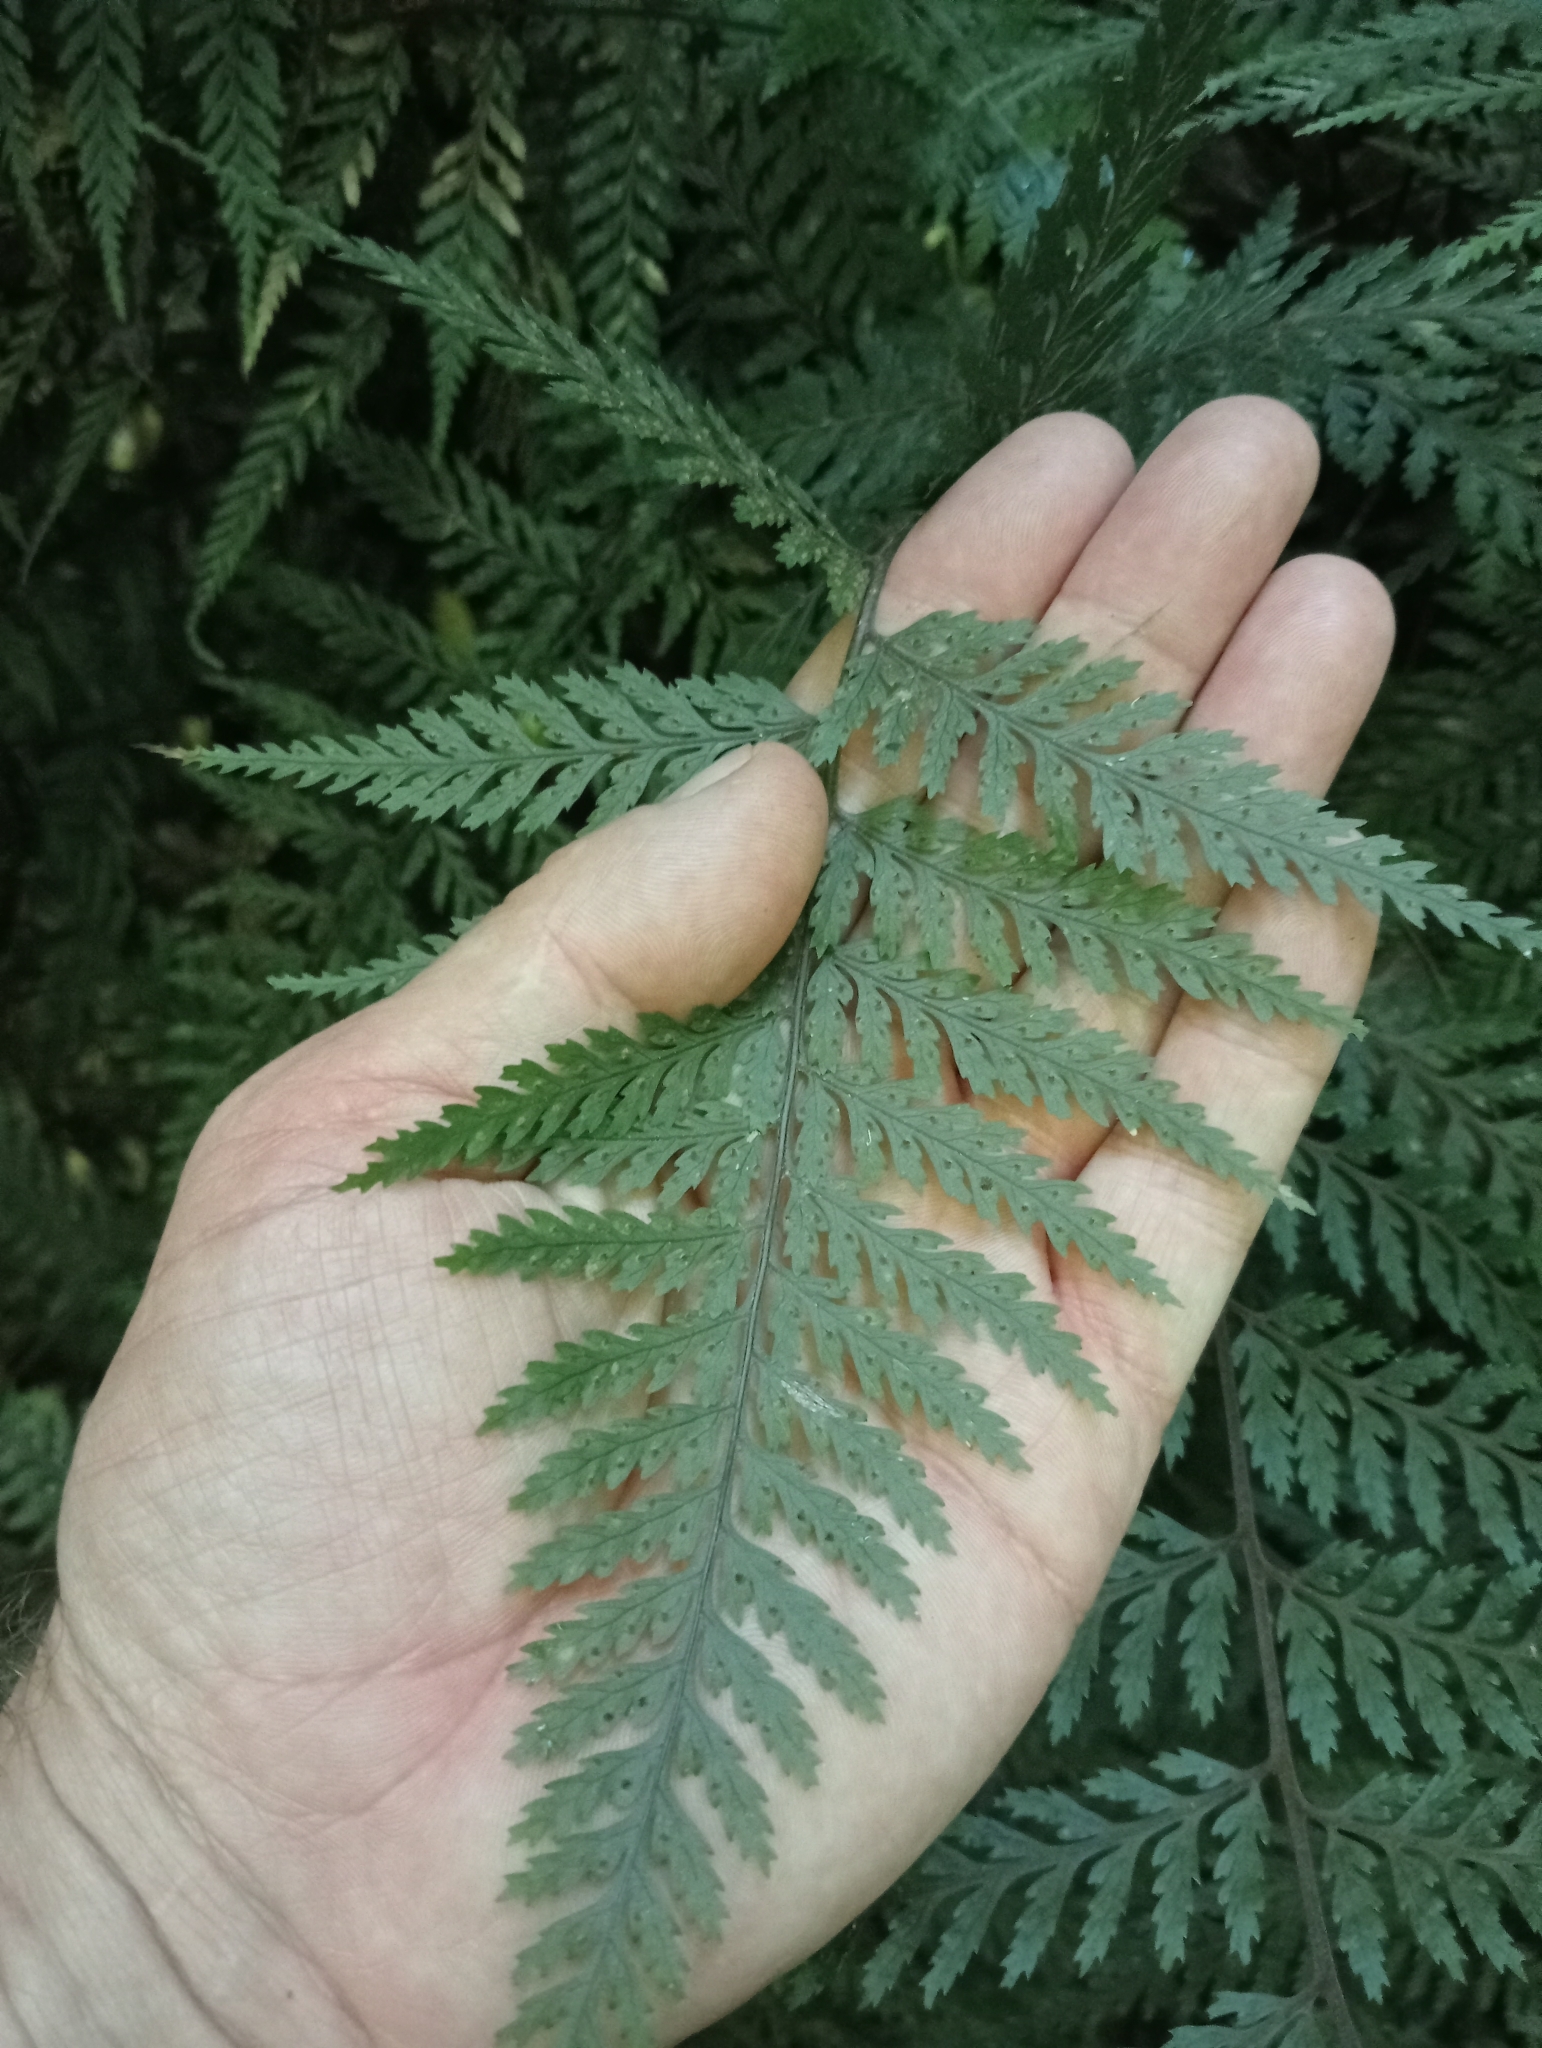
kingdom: Plantae
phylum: Tracheophyta
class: Polypodiopsida
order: Polypodiales
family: Dryopteridaceae
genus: Parapolystichum
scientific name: Parapolystichum glabellum
